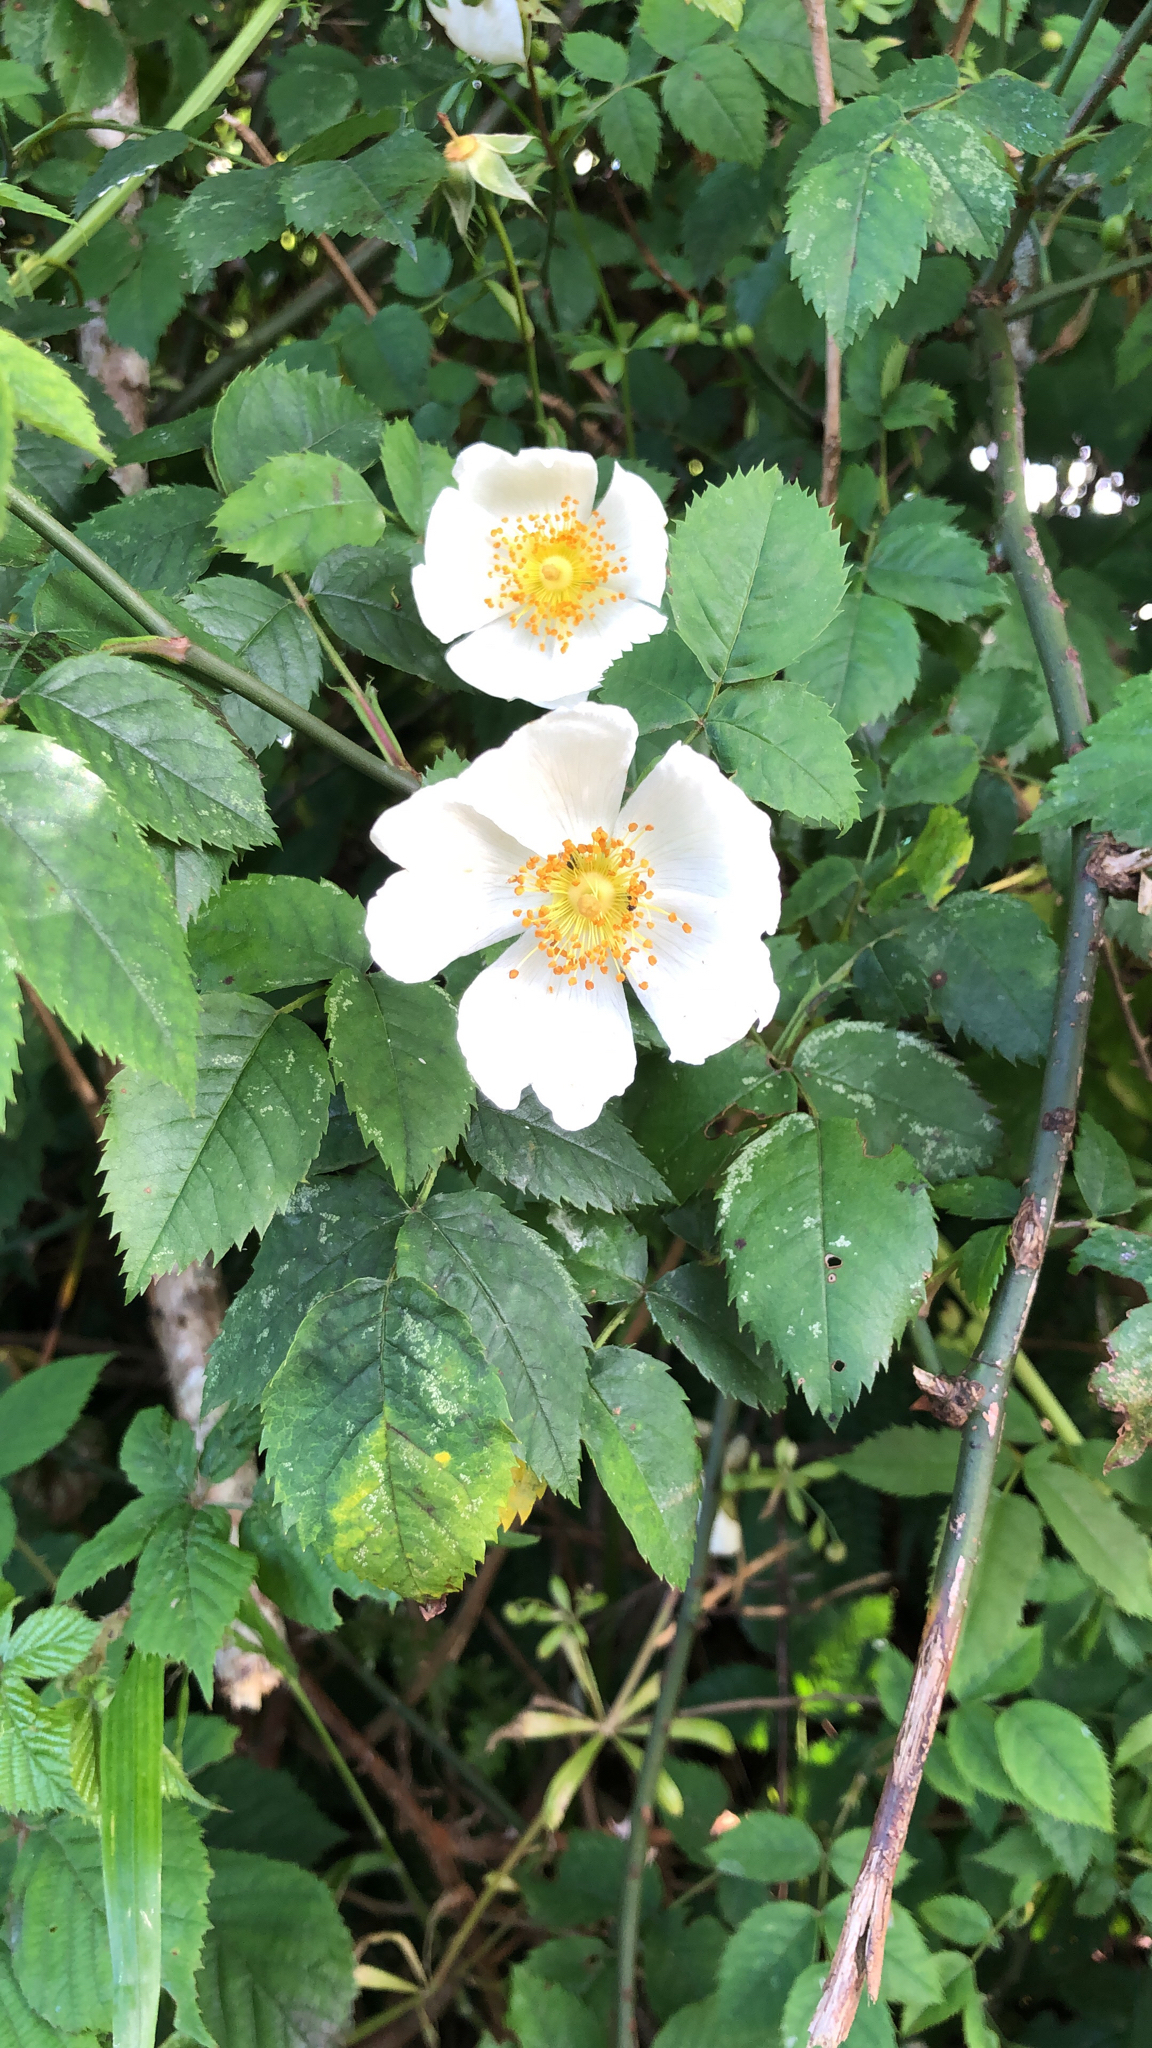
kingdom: Plantae
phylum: Tracheophyta
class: Magnoliopsida
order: Rosales
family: Rosaceae
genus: Rosa
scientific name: Rosa canina
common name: Dog rose
